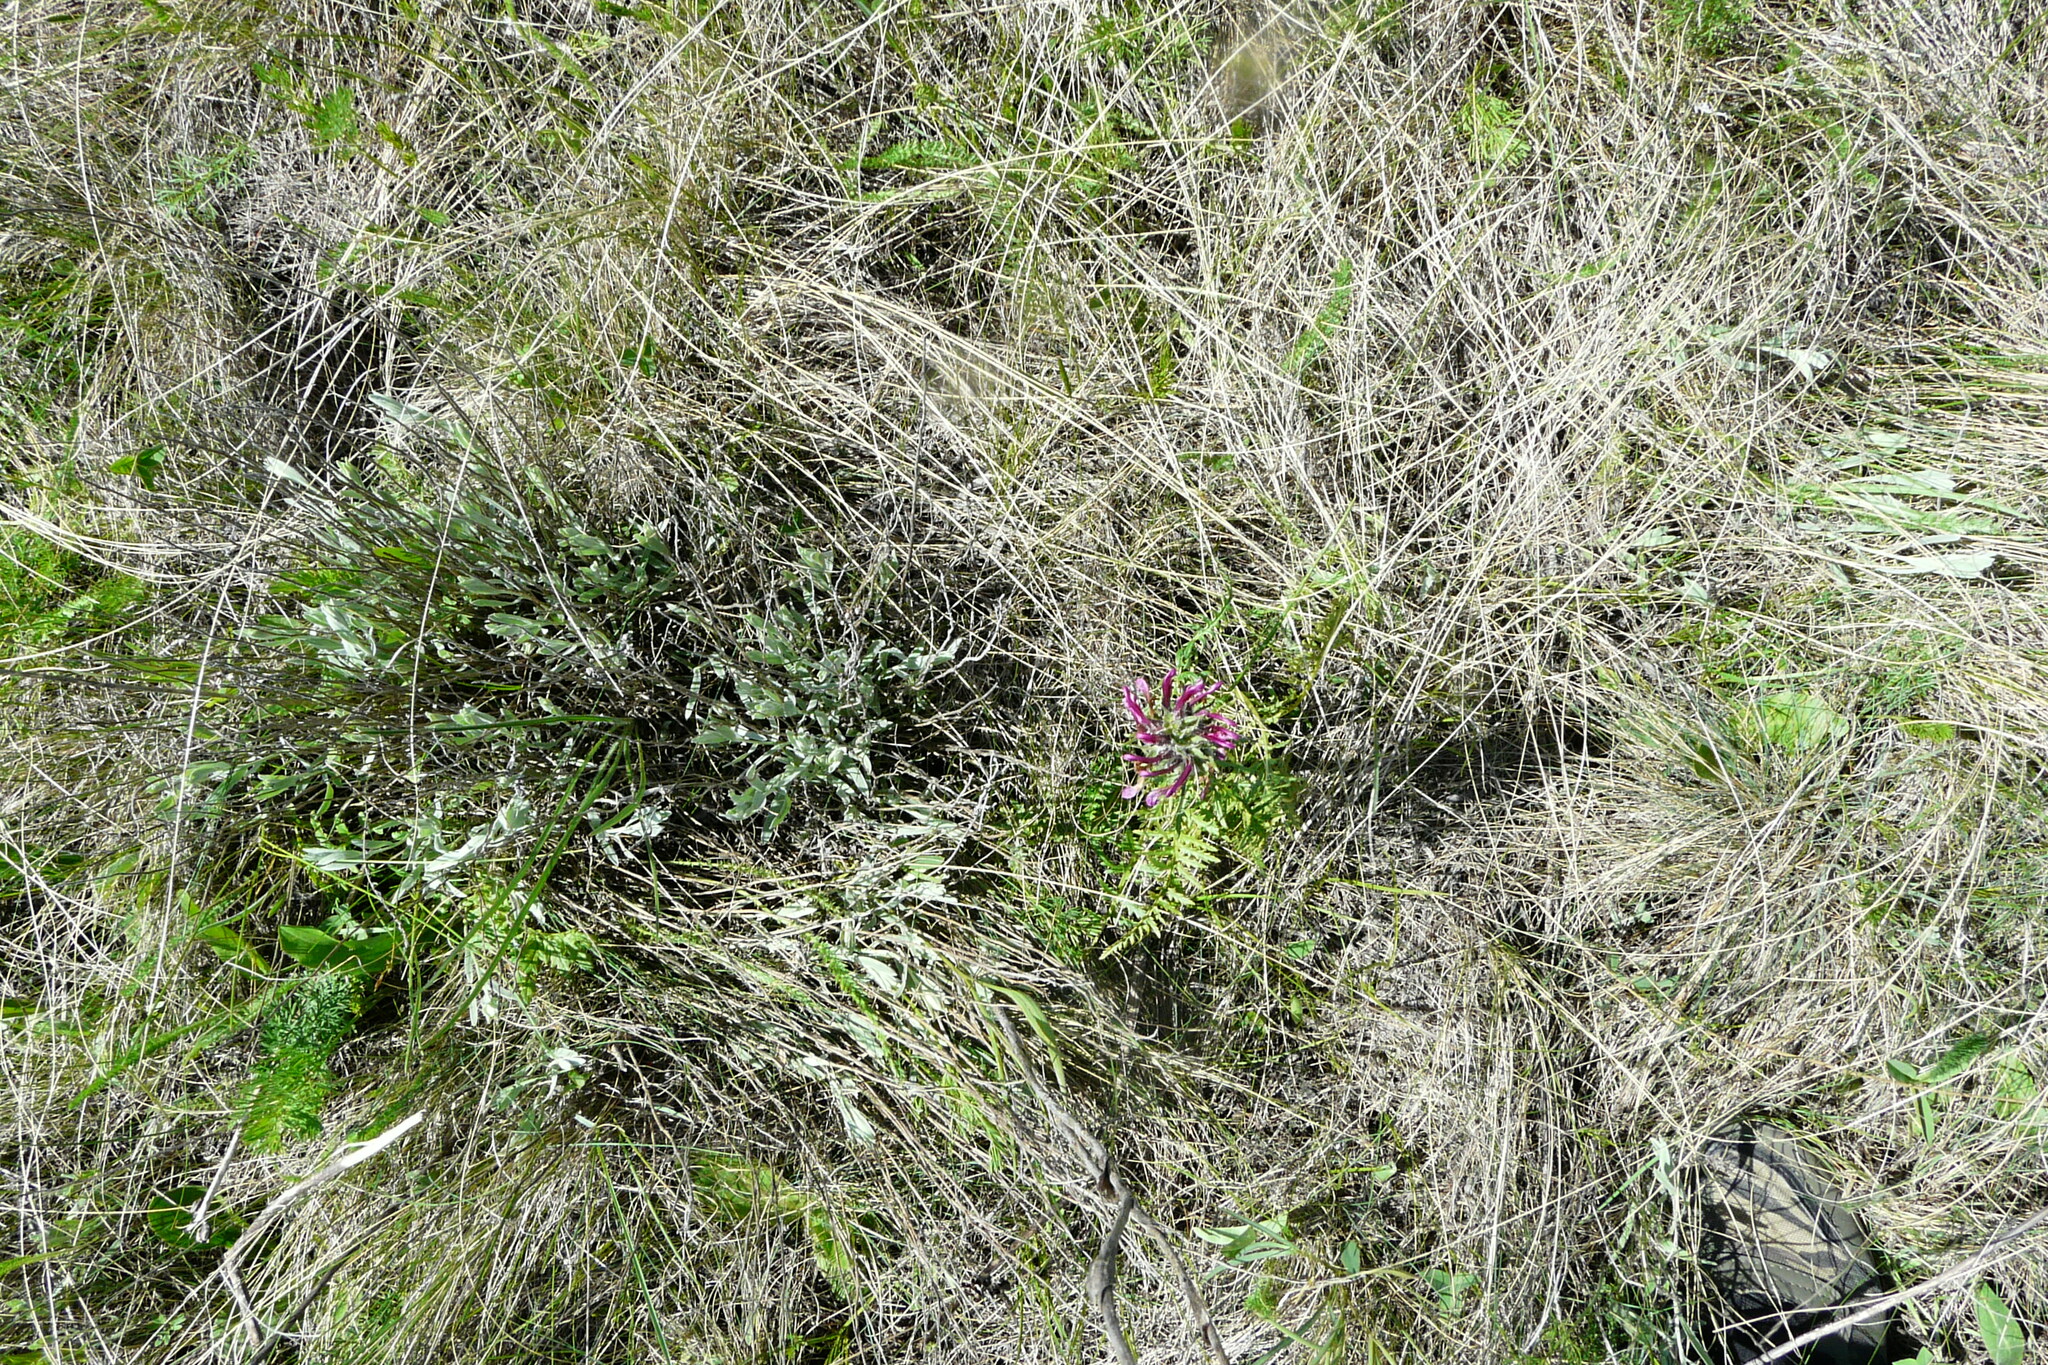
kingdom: Plantae
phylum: Tracheophyta
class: Magnoliopsida
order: Lamiales
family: Orobanchaceae
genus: Pedicularis
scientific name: Pedicularis dasystachys
